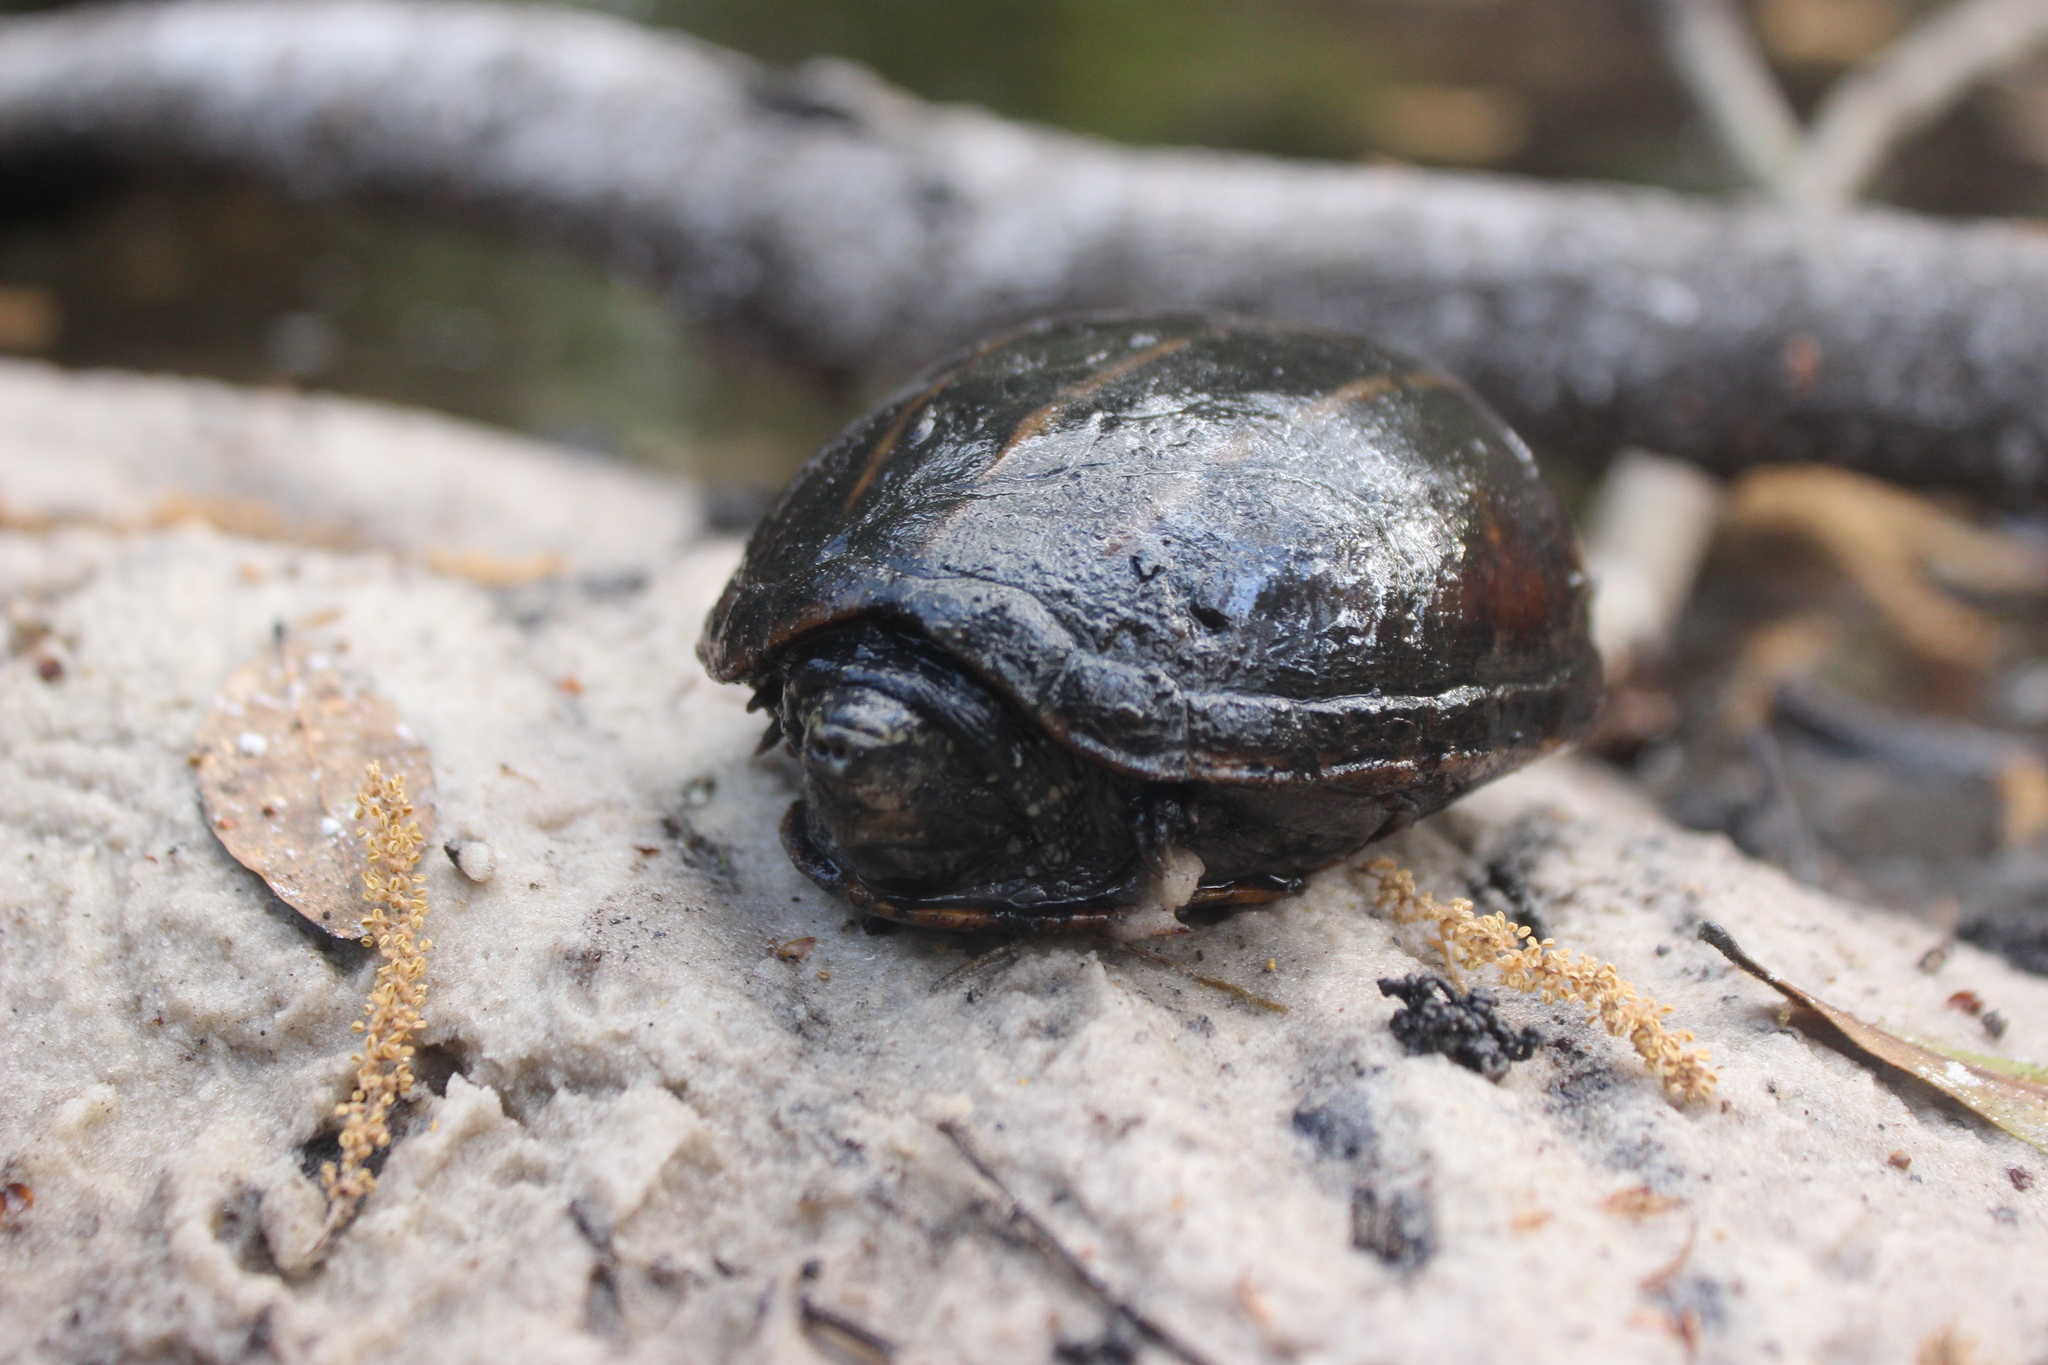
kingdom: Animalia
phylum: Chordata
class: Testudines
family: Kinosternidae
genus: Kinosternon
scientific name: Kinosternon baurii
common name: Striped mud turtle
